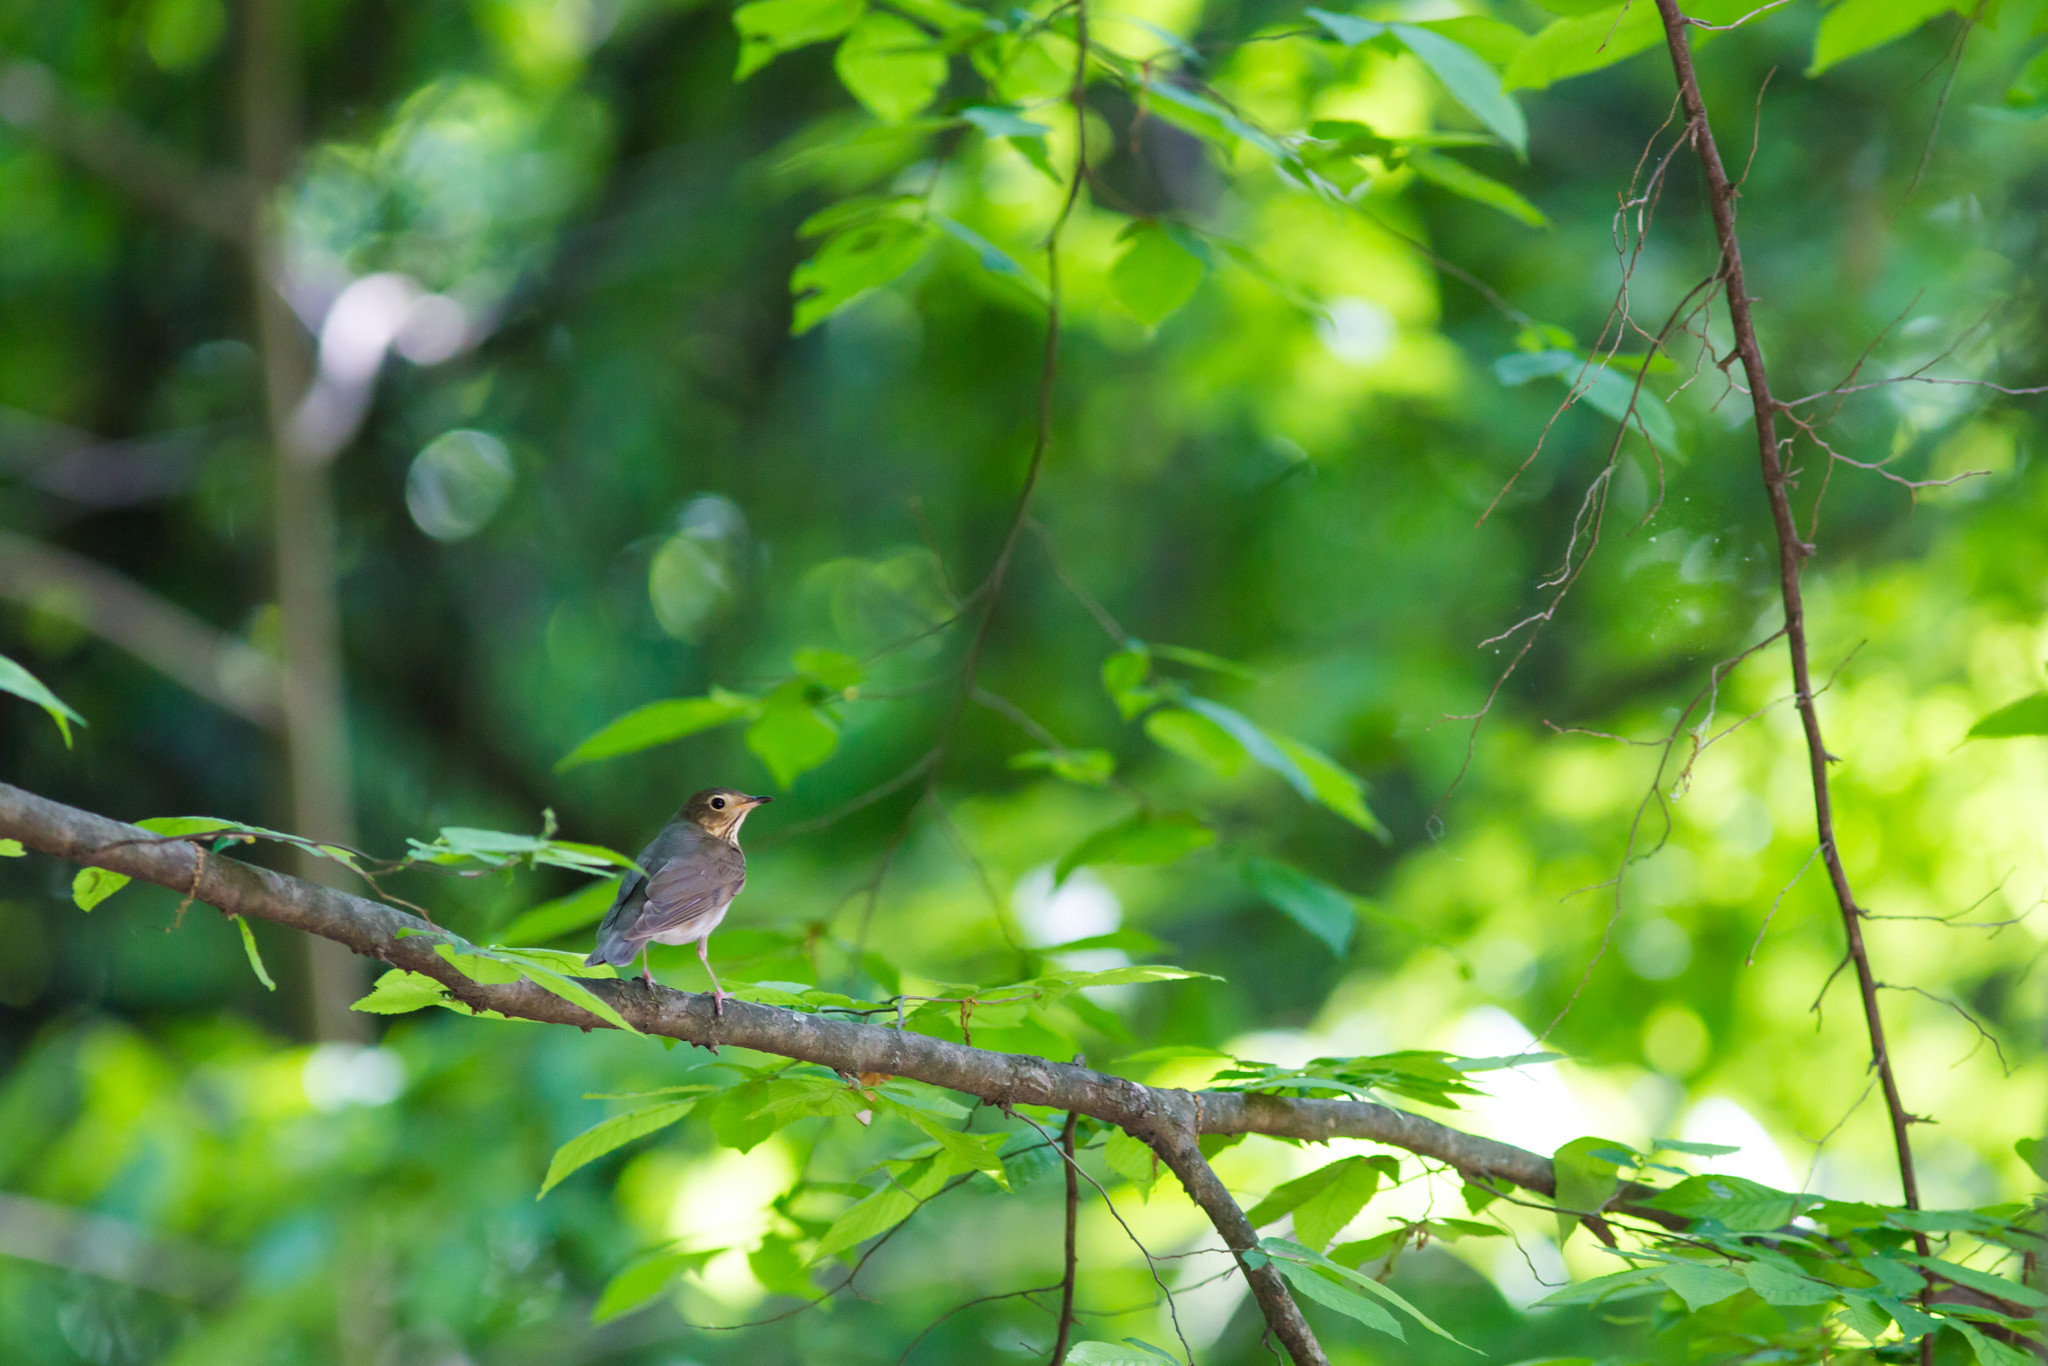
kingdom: Animalia
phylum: Chordata
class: Aves
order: Passeriformes
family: Turdidae
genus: Catharus
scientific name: Catharus ustulatus
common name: Swainson's thrush
